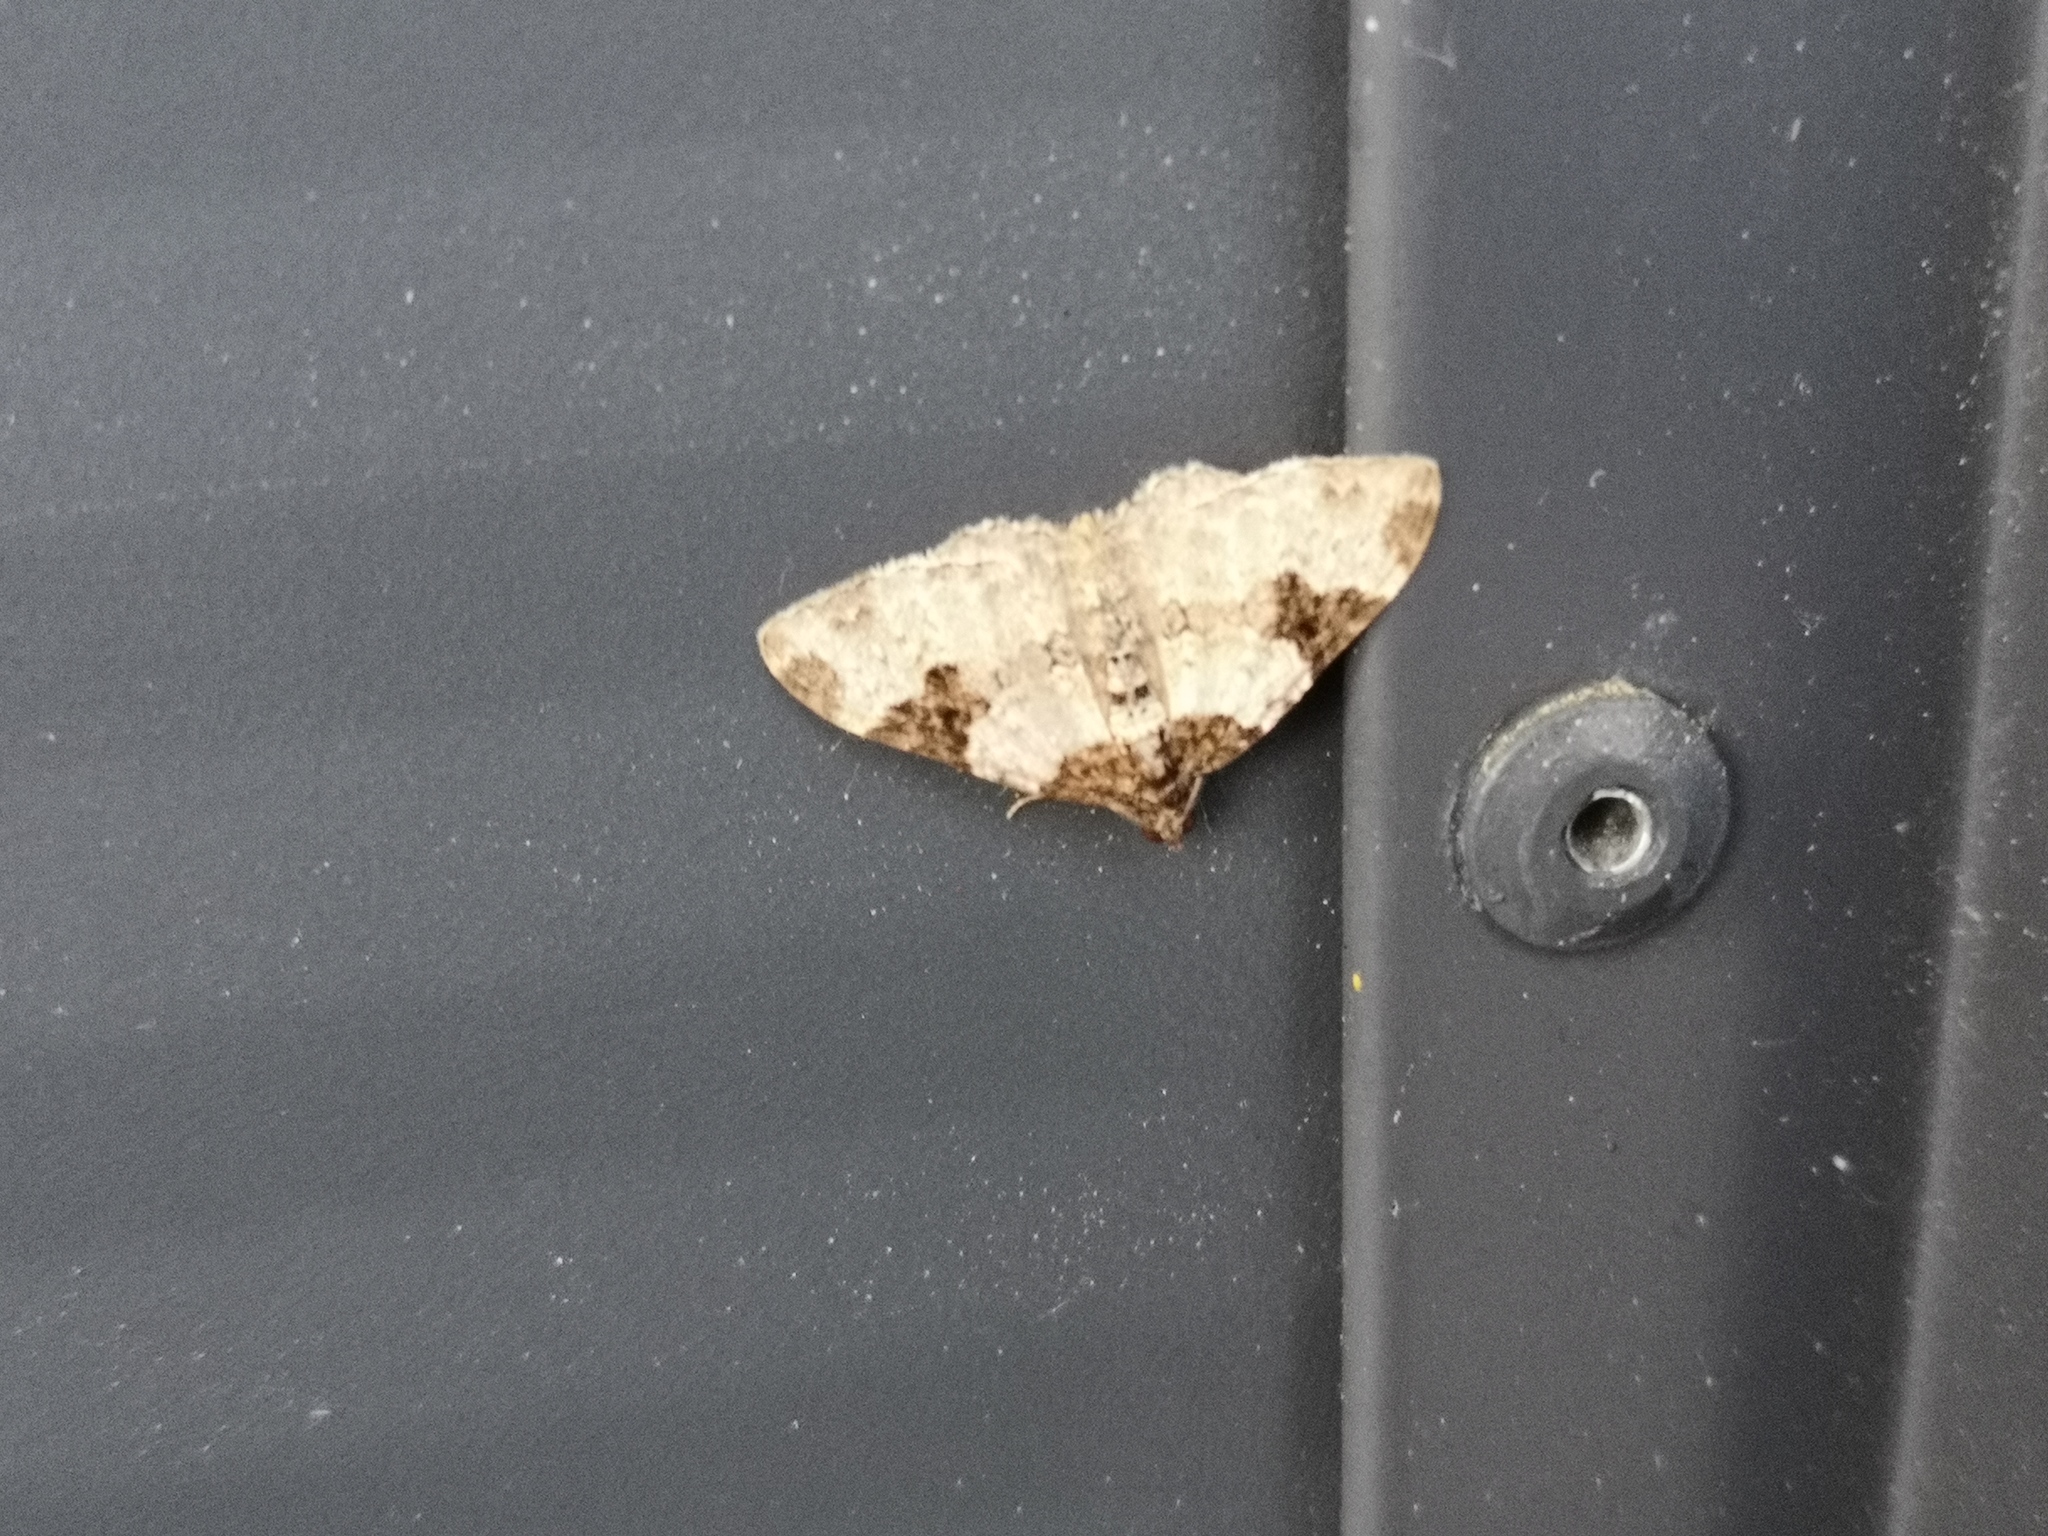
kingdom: Animalia
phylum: Arthropoda
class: Insecta
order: Lepidoptera
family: Geometridae
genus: Xanthorhoe
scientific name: Xanthorhoe fluctuata
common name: Garden carpet
